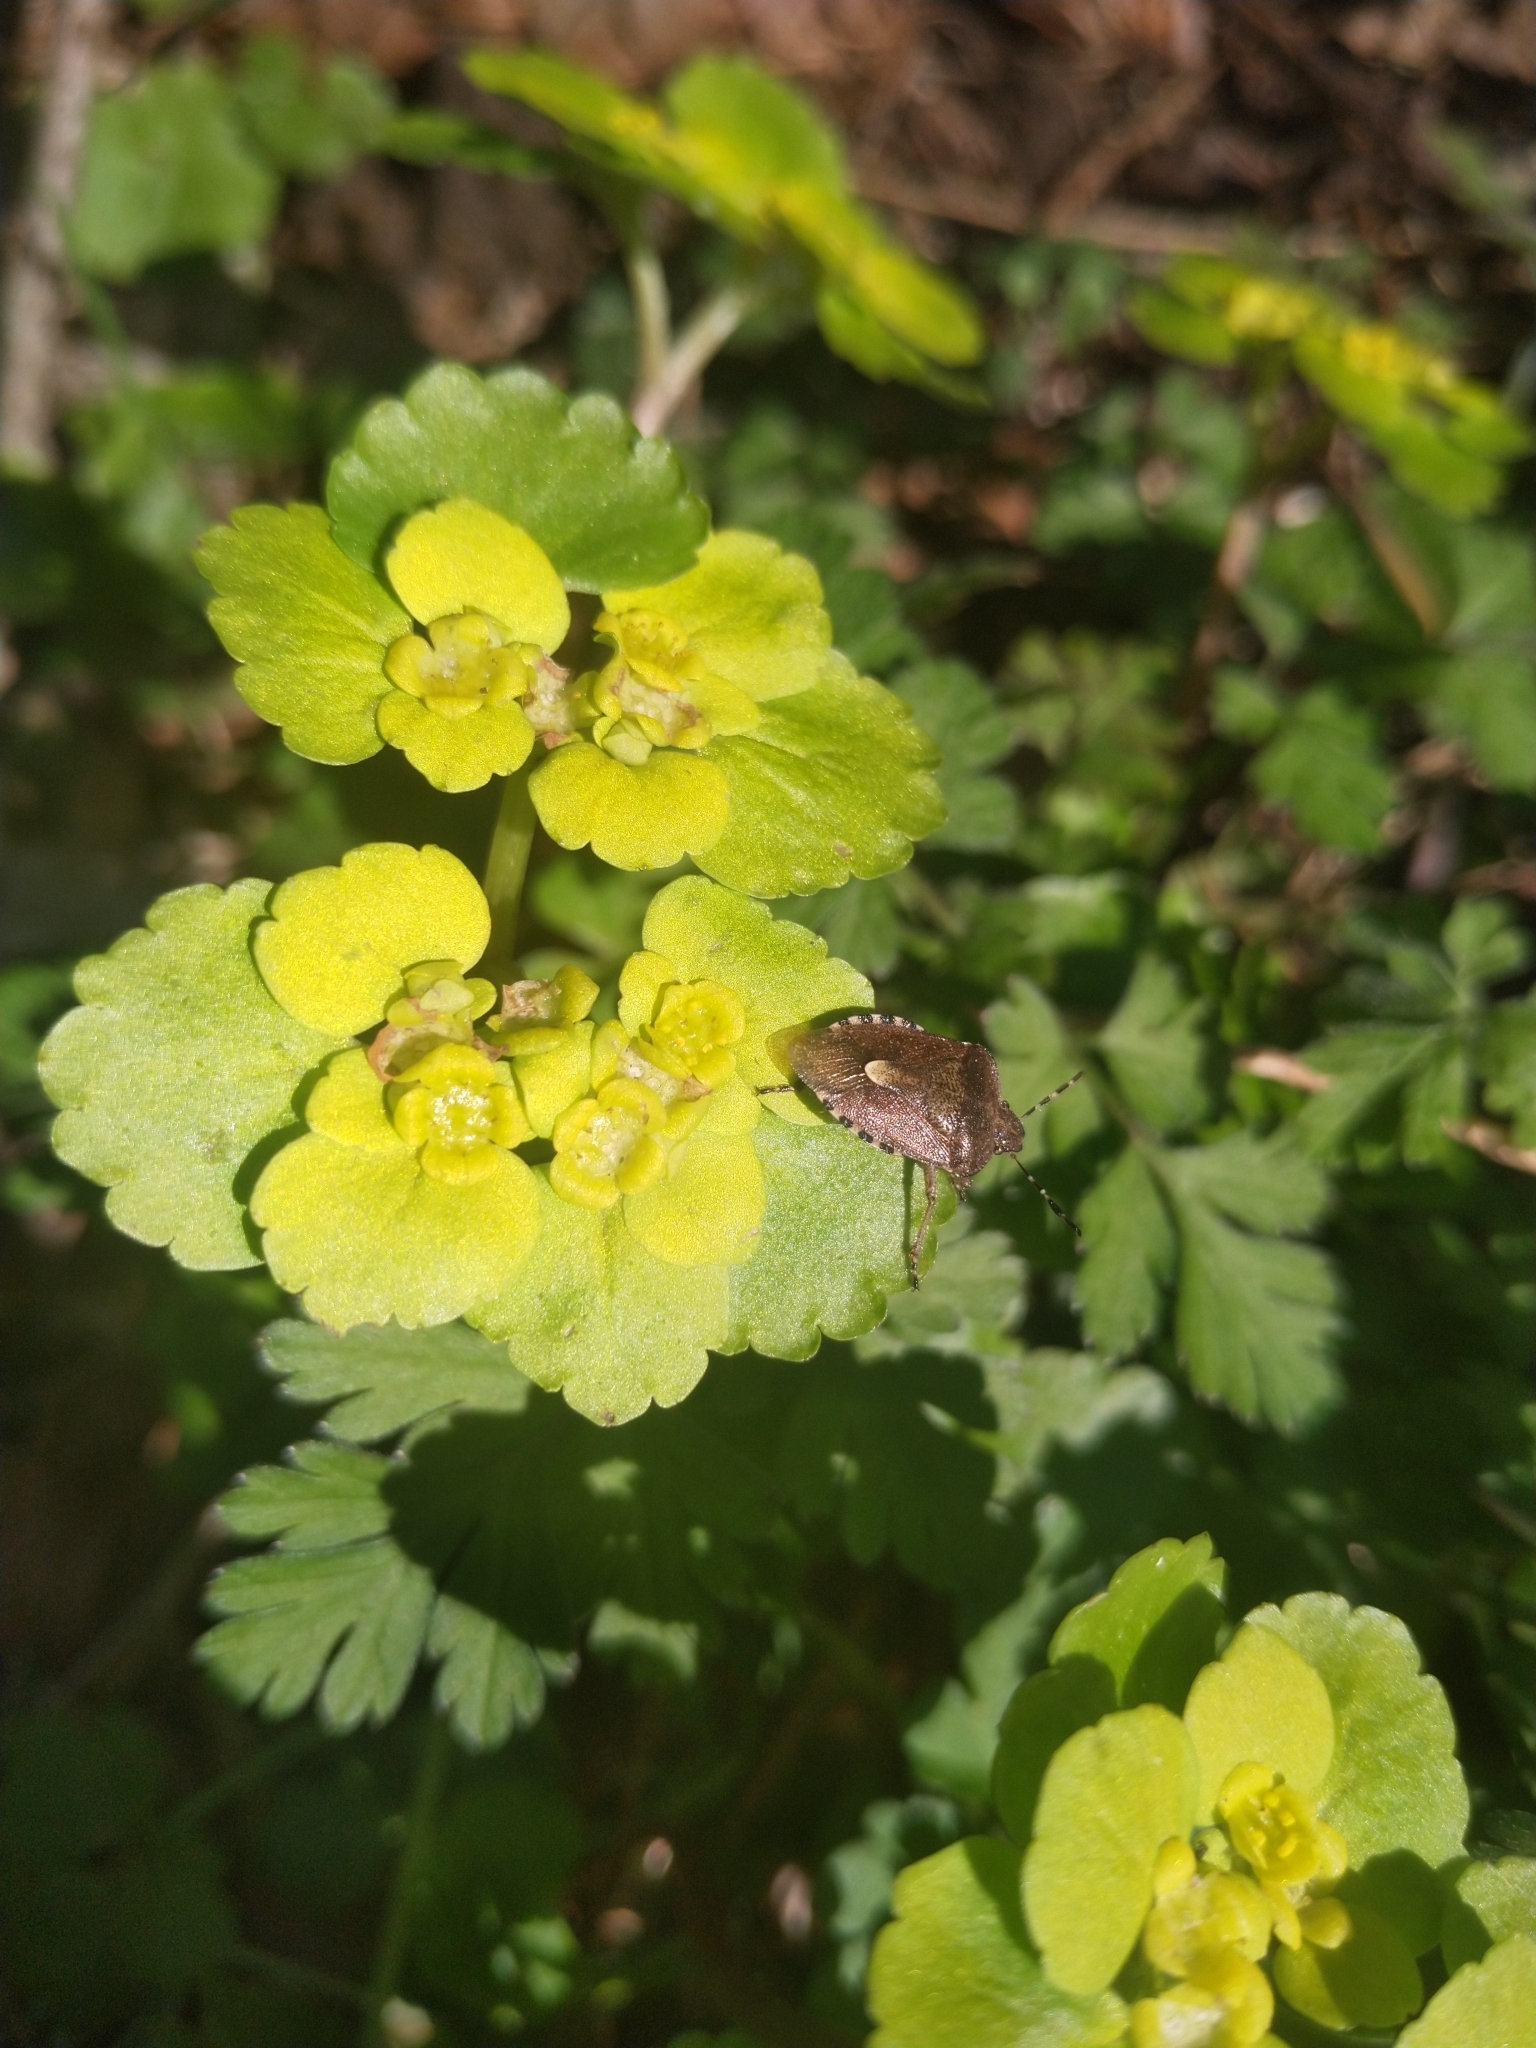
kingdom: Animalia
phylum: Arthropoda
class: Insecta
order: Hemiptera
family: Pentatomidae
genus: Dolycoris
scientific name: Dolycoris baccarum
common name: Sloe bug
